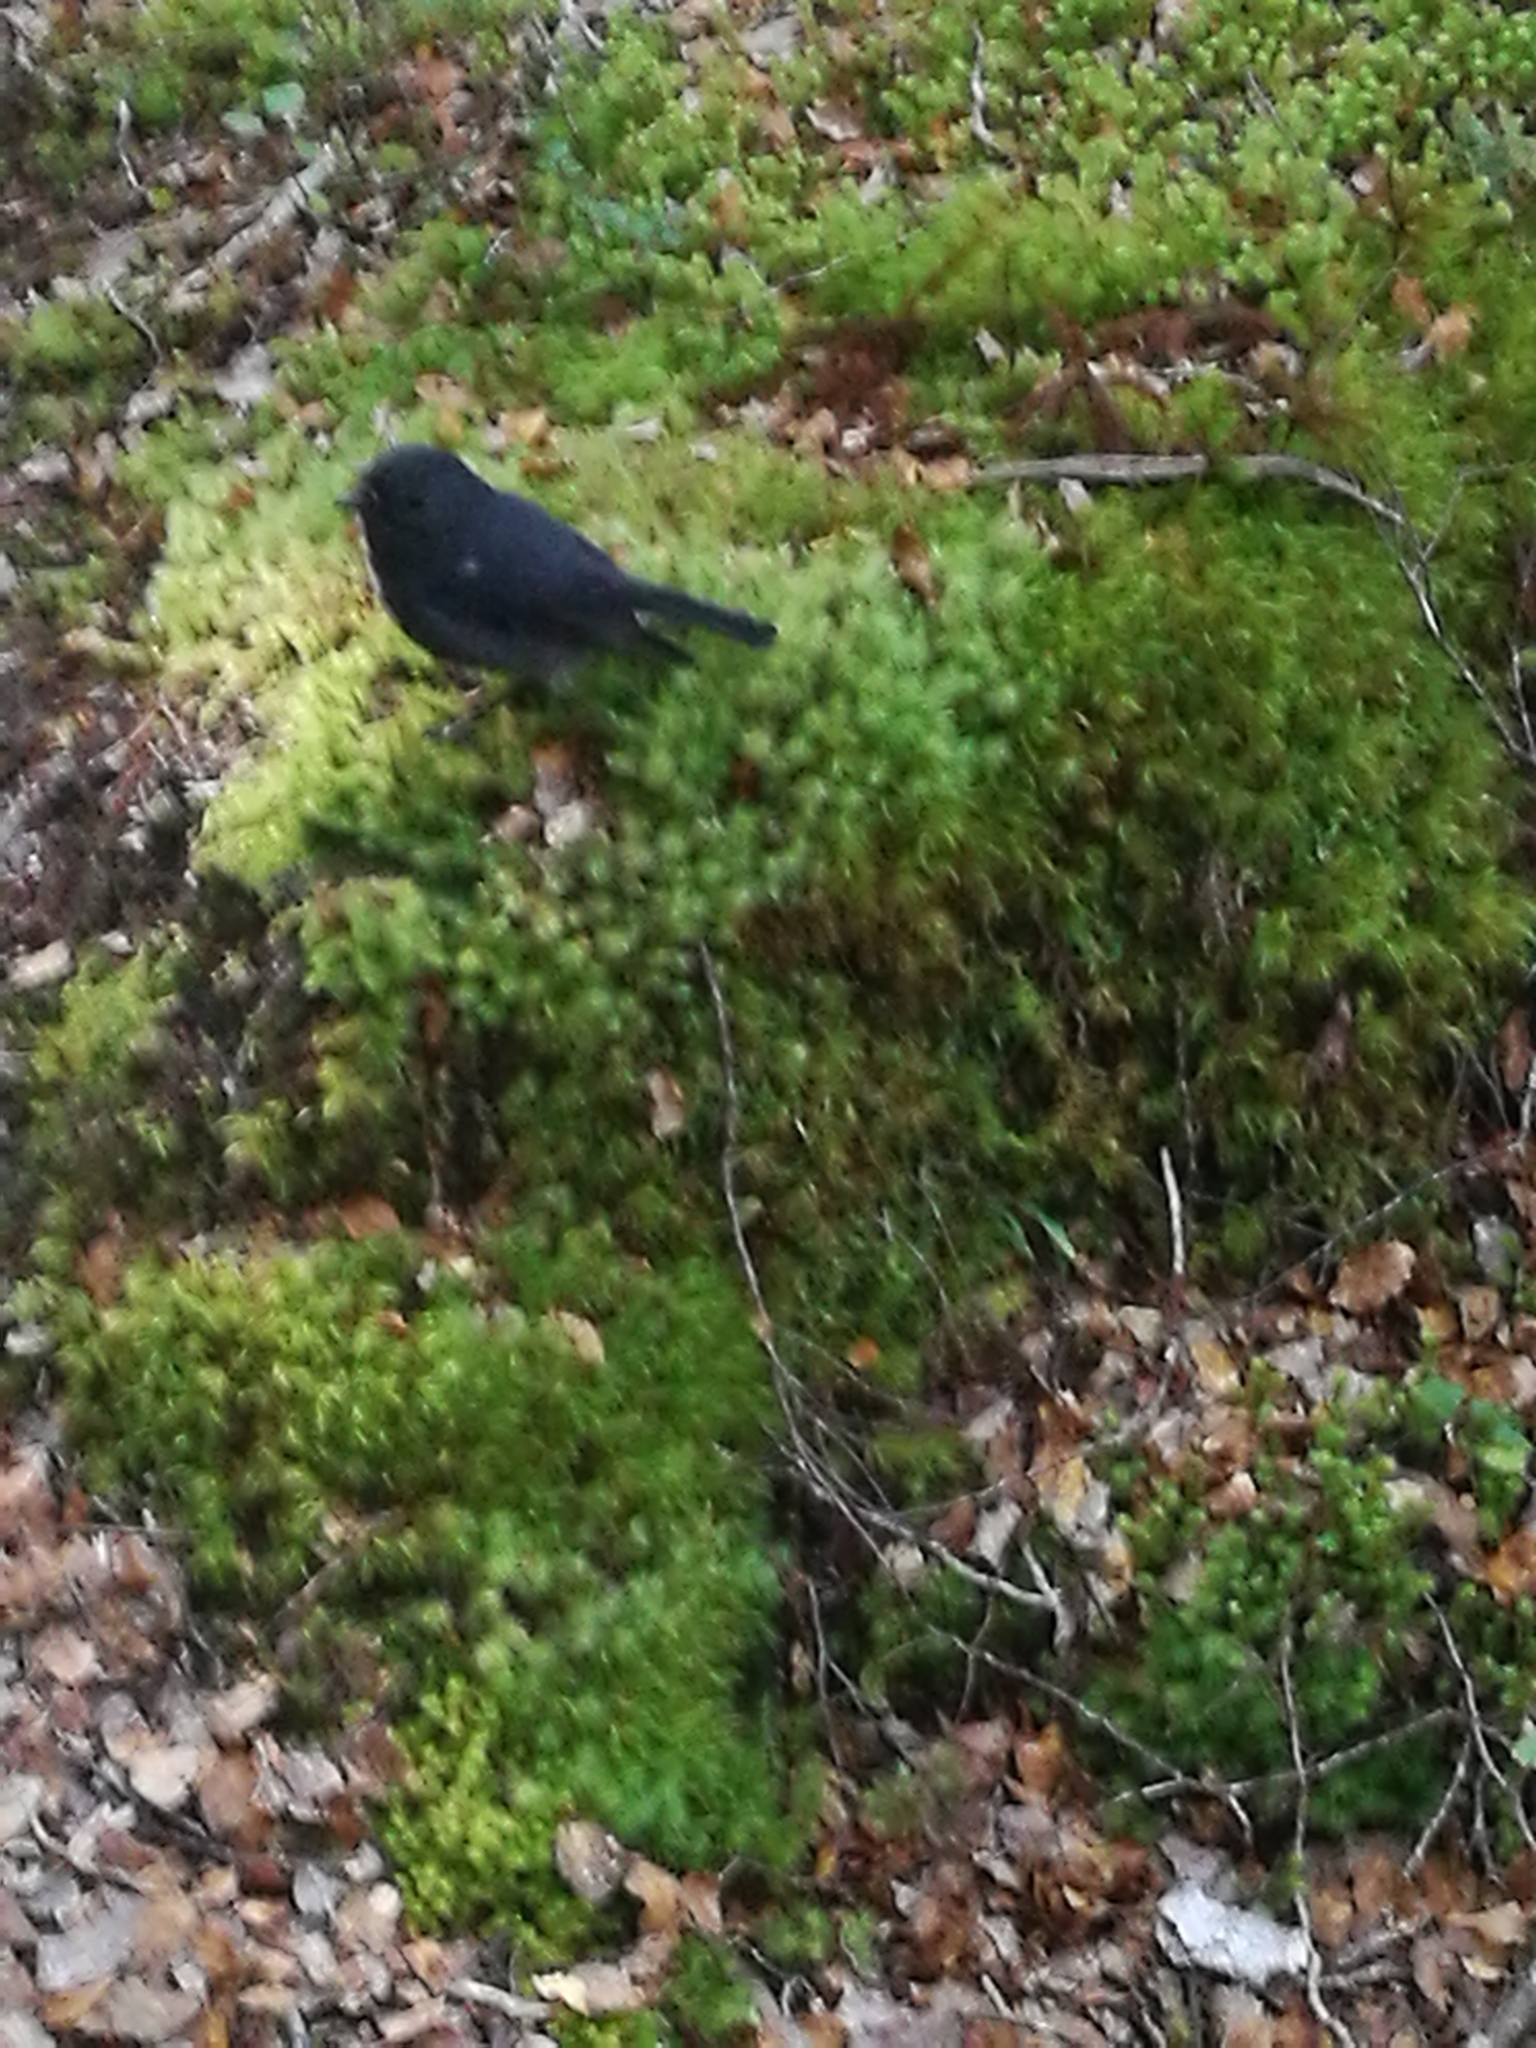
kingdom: Animalia
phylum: Chordata
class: Aves
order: Passeriformes
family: Petroicidae
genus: Petroica
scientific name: Petroica australis
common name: New zealand robin
